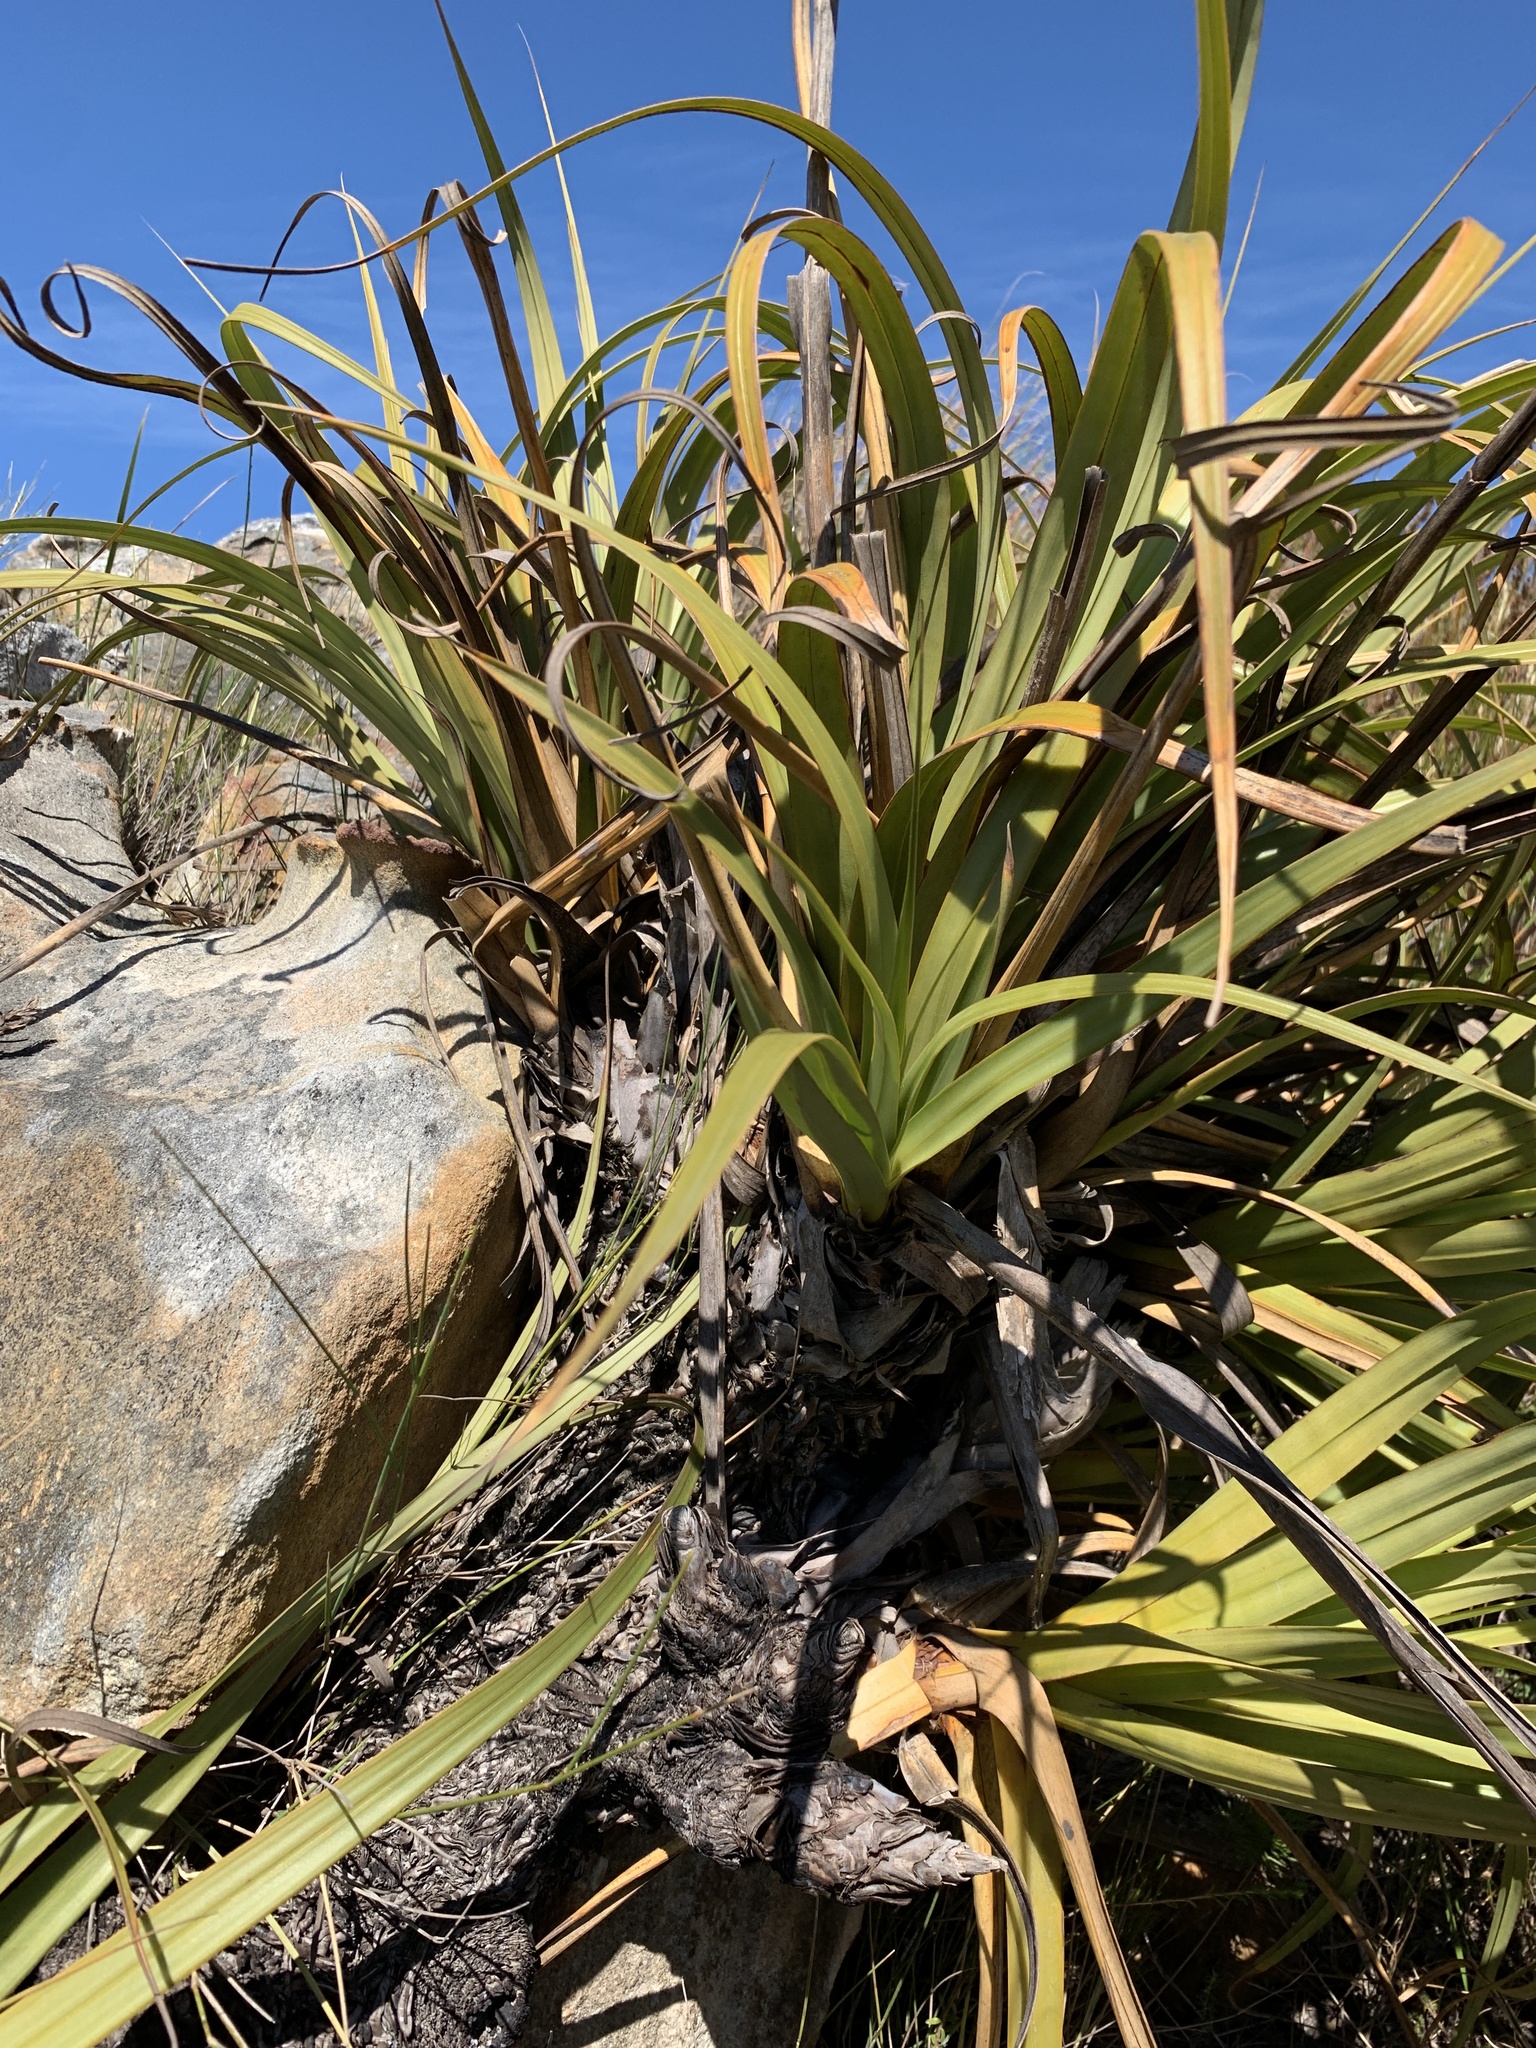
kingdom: Plantae
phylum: Tracheophyta
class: Liliopsida
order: Poales
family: Cyperaceae
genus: Tetraria
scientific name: Tetraria thermalis
